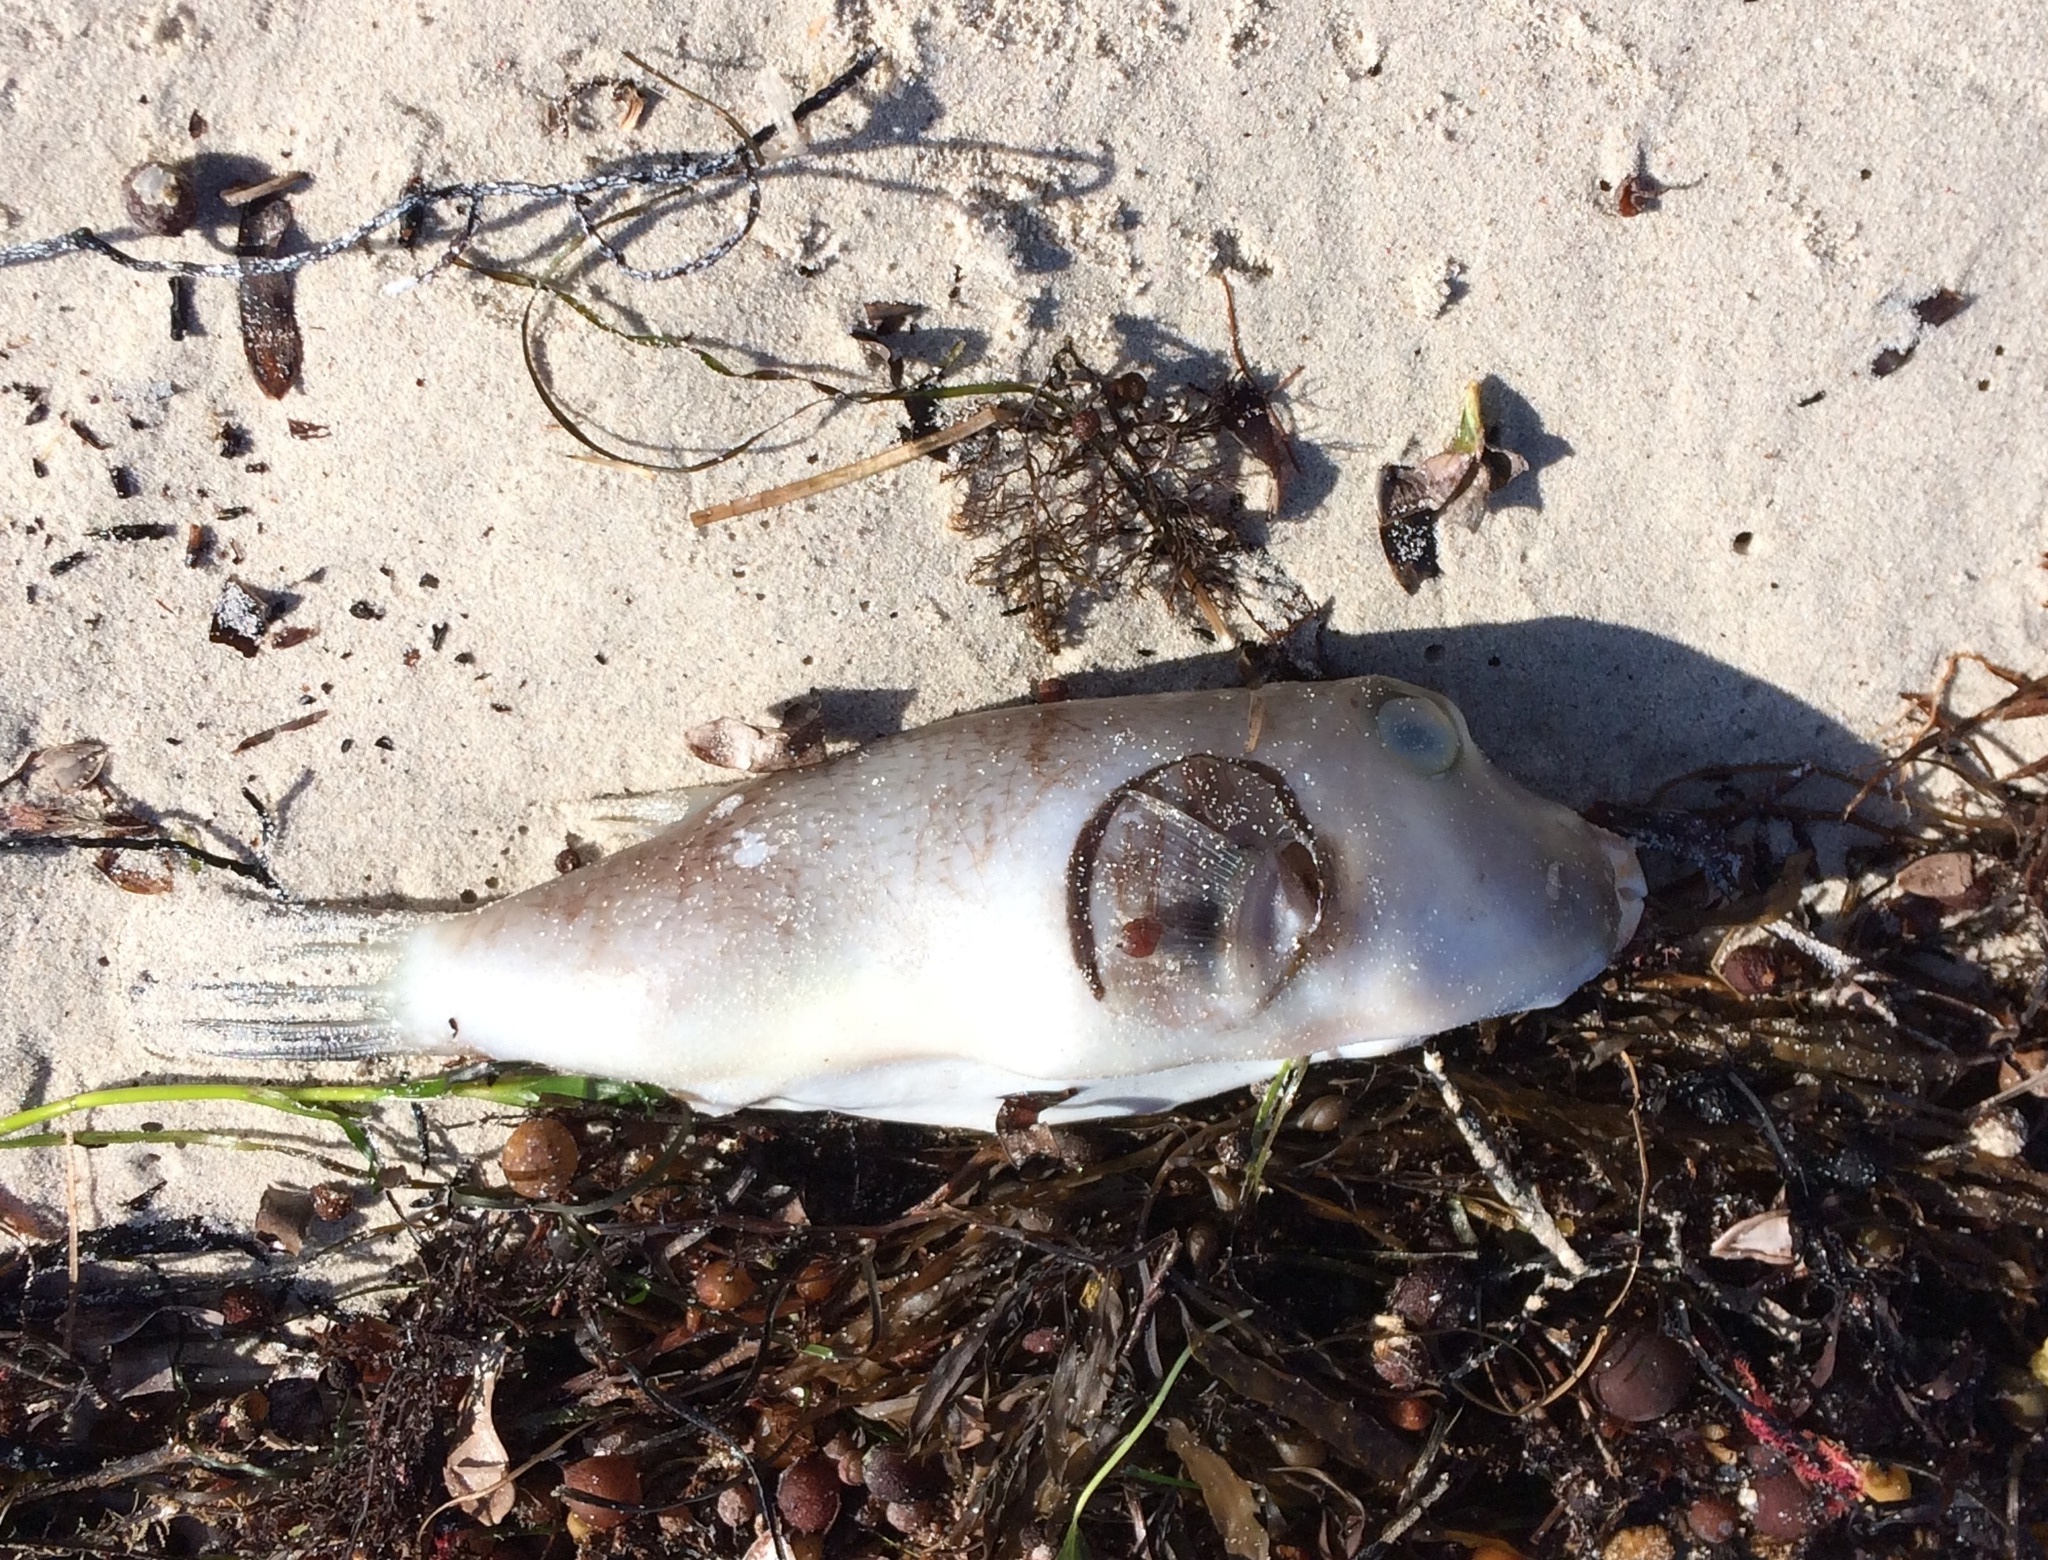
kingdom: Animalia
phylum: Chordata
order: Tetraodontiformes
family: Tetraodontidae
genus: Omegophora
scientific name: Omegophora armilla
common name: Ringed pufferfish
